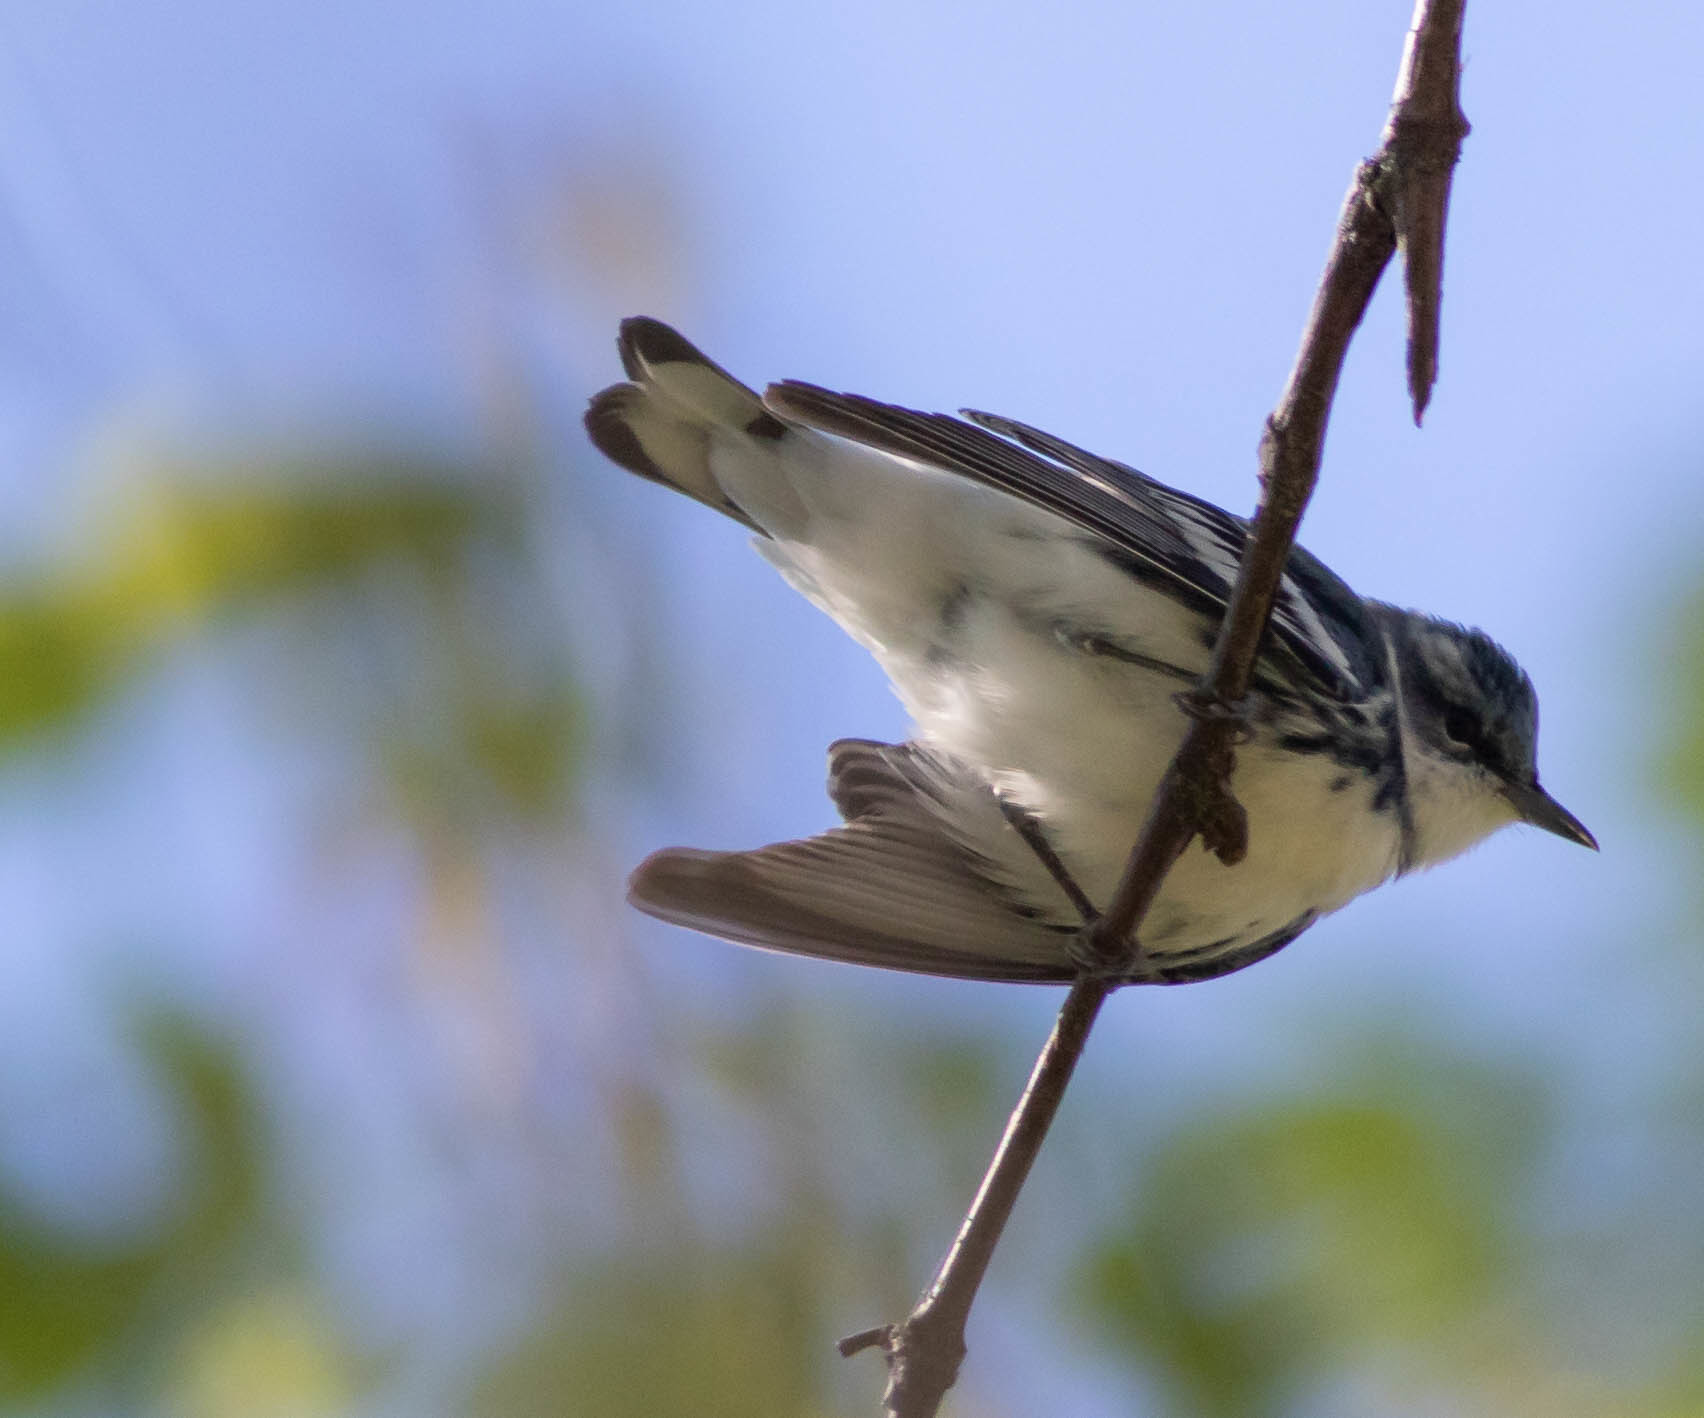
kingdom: Animalia
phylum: Chordata
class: Aves
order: Passeriformes
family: Parulidae
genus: Setophaga
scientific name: Setophaga cerulea
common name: Cerulean warbler
